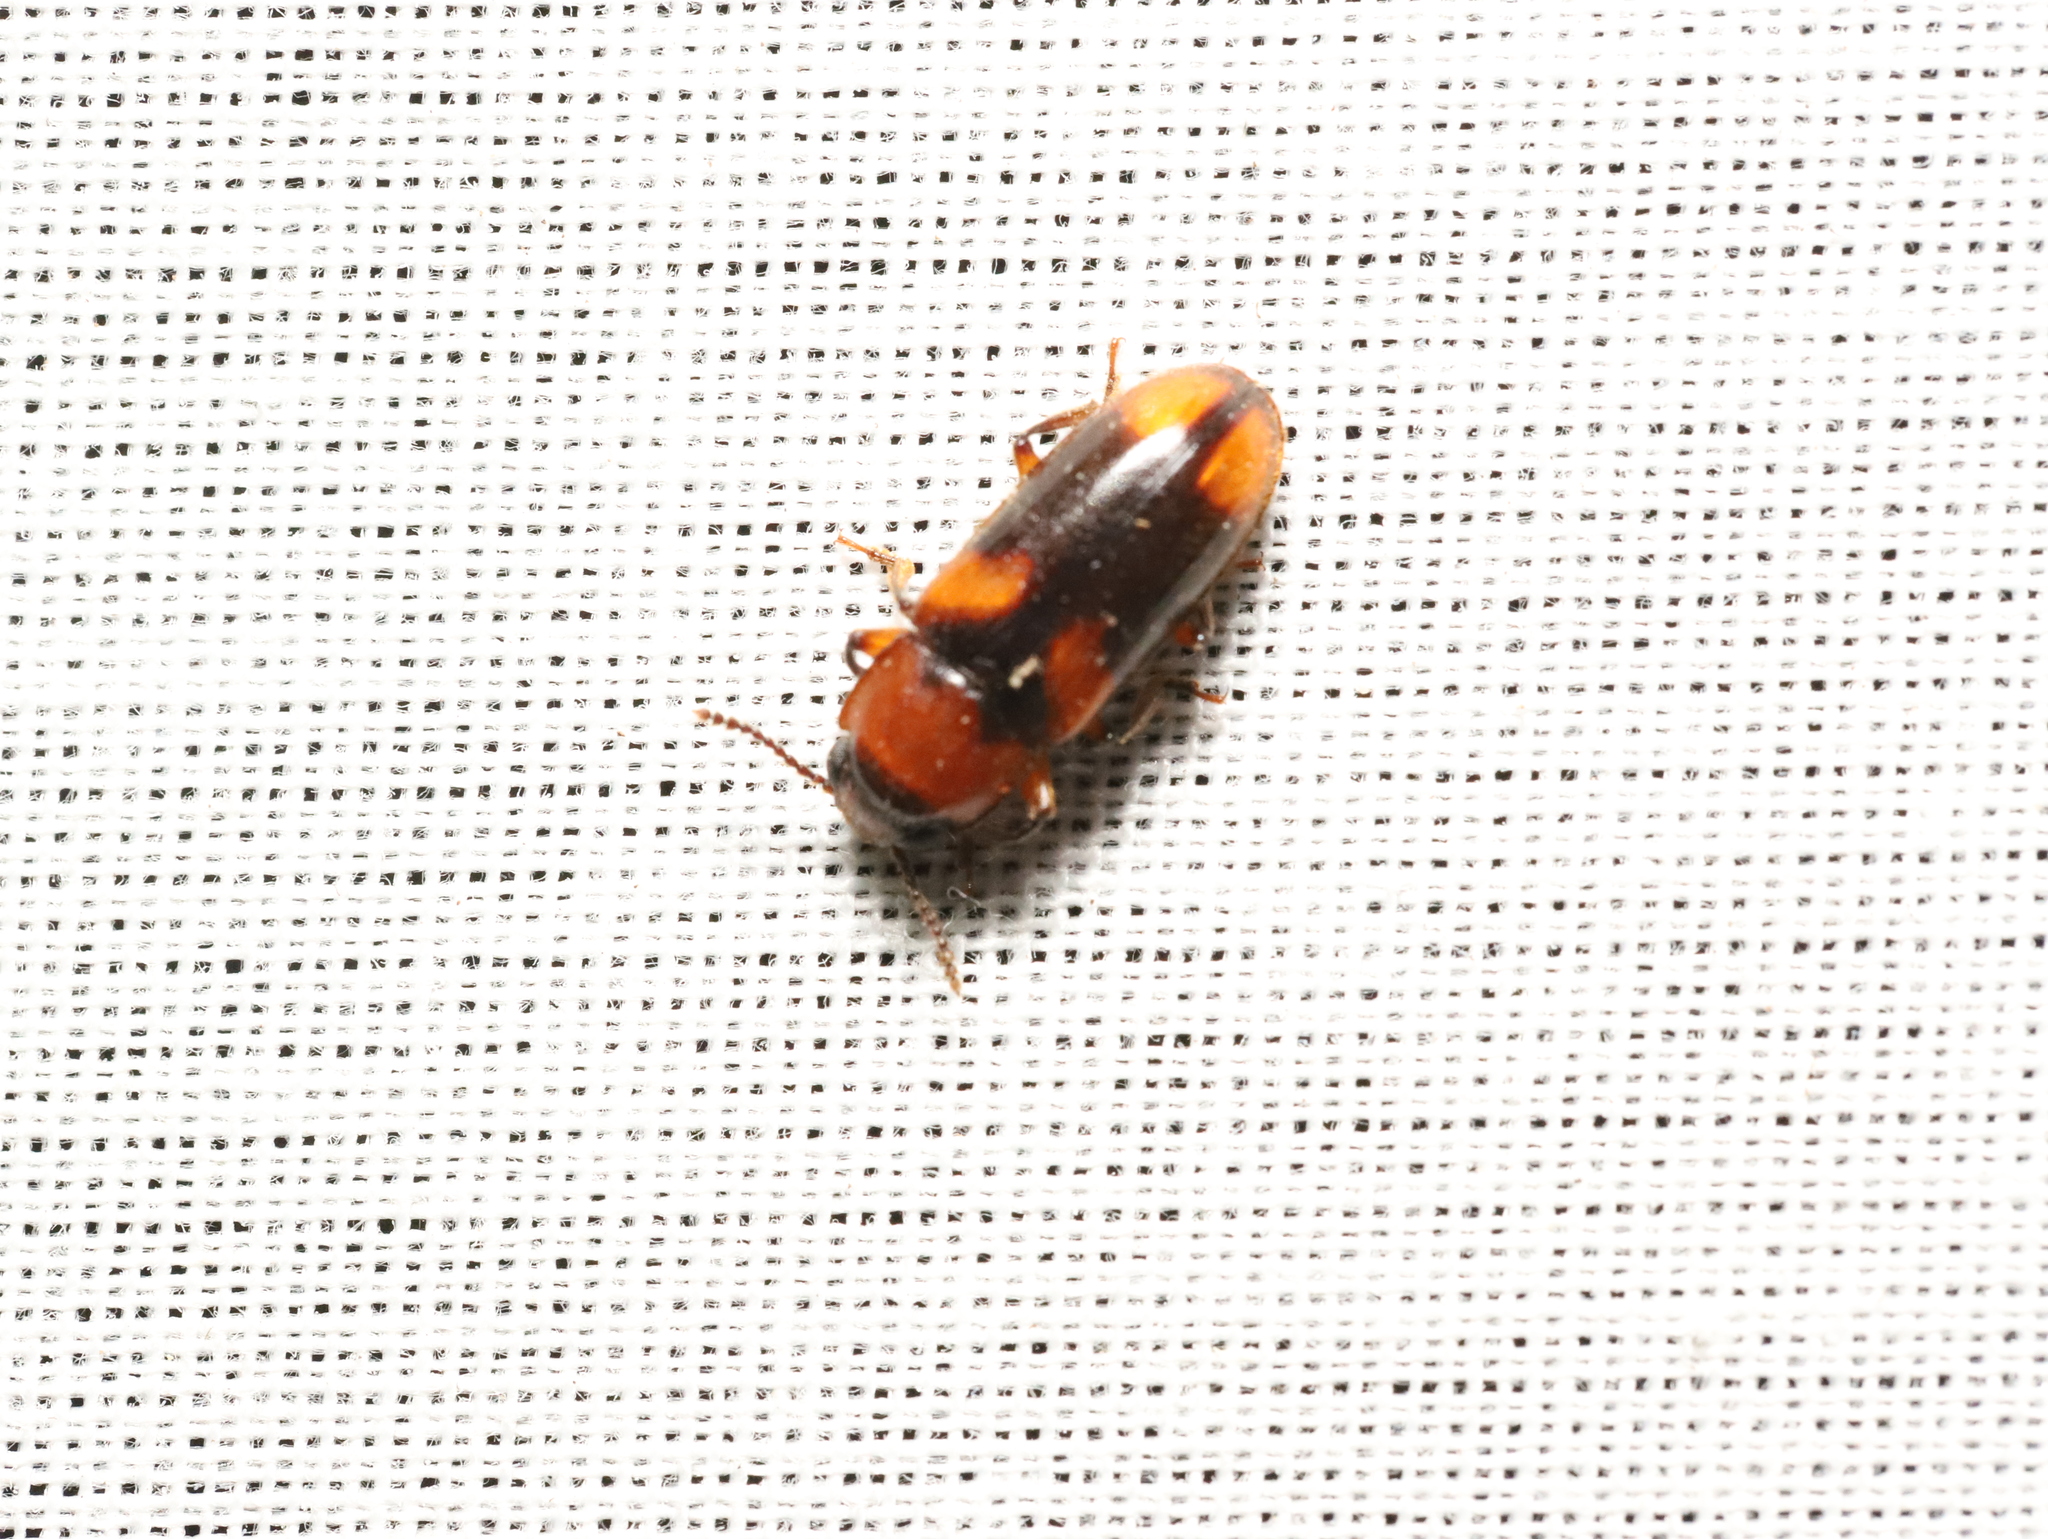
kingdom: Animalia
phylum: Arthropoda
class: Insecta
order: Coleoptera
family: Erotylidae
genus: Cnecosa
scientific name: Cnecosa
